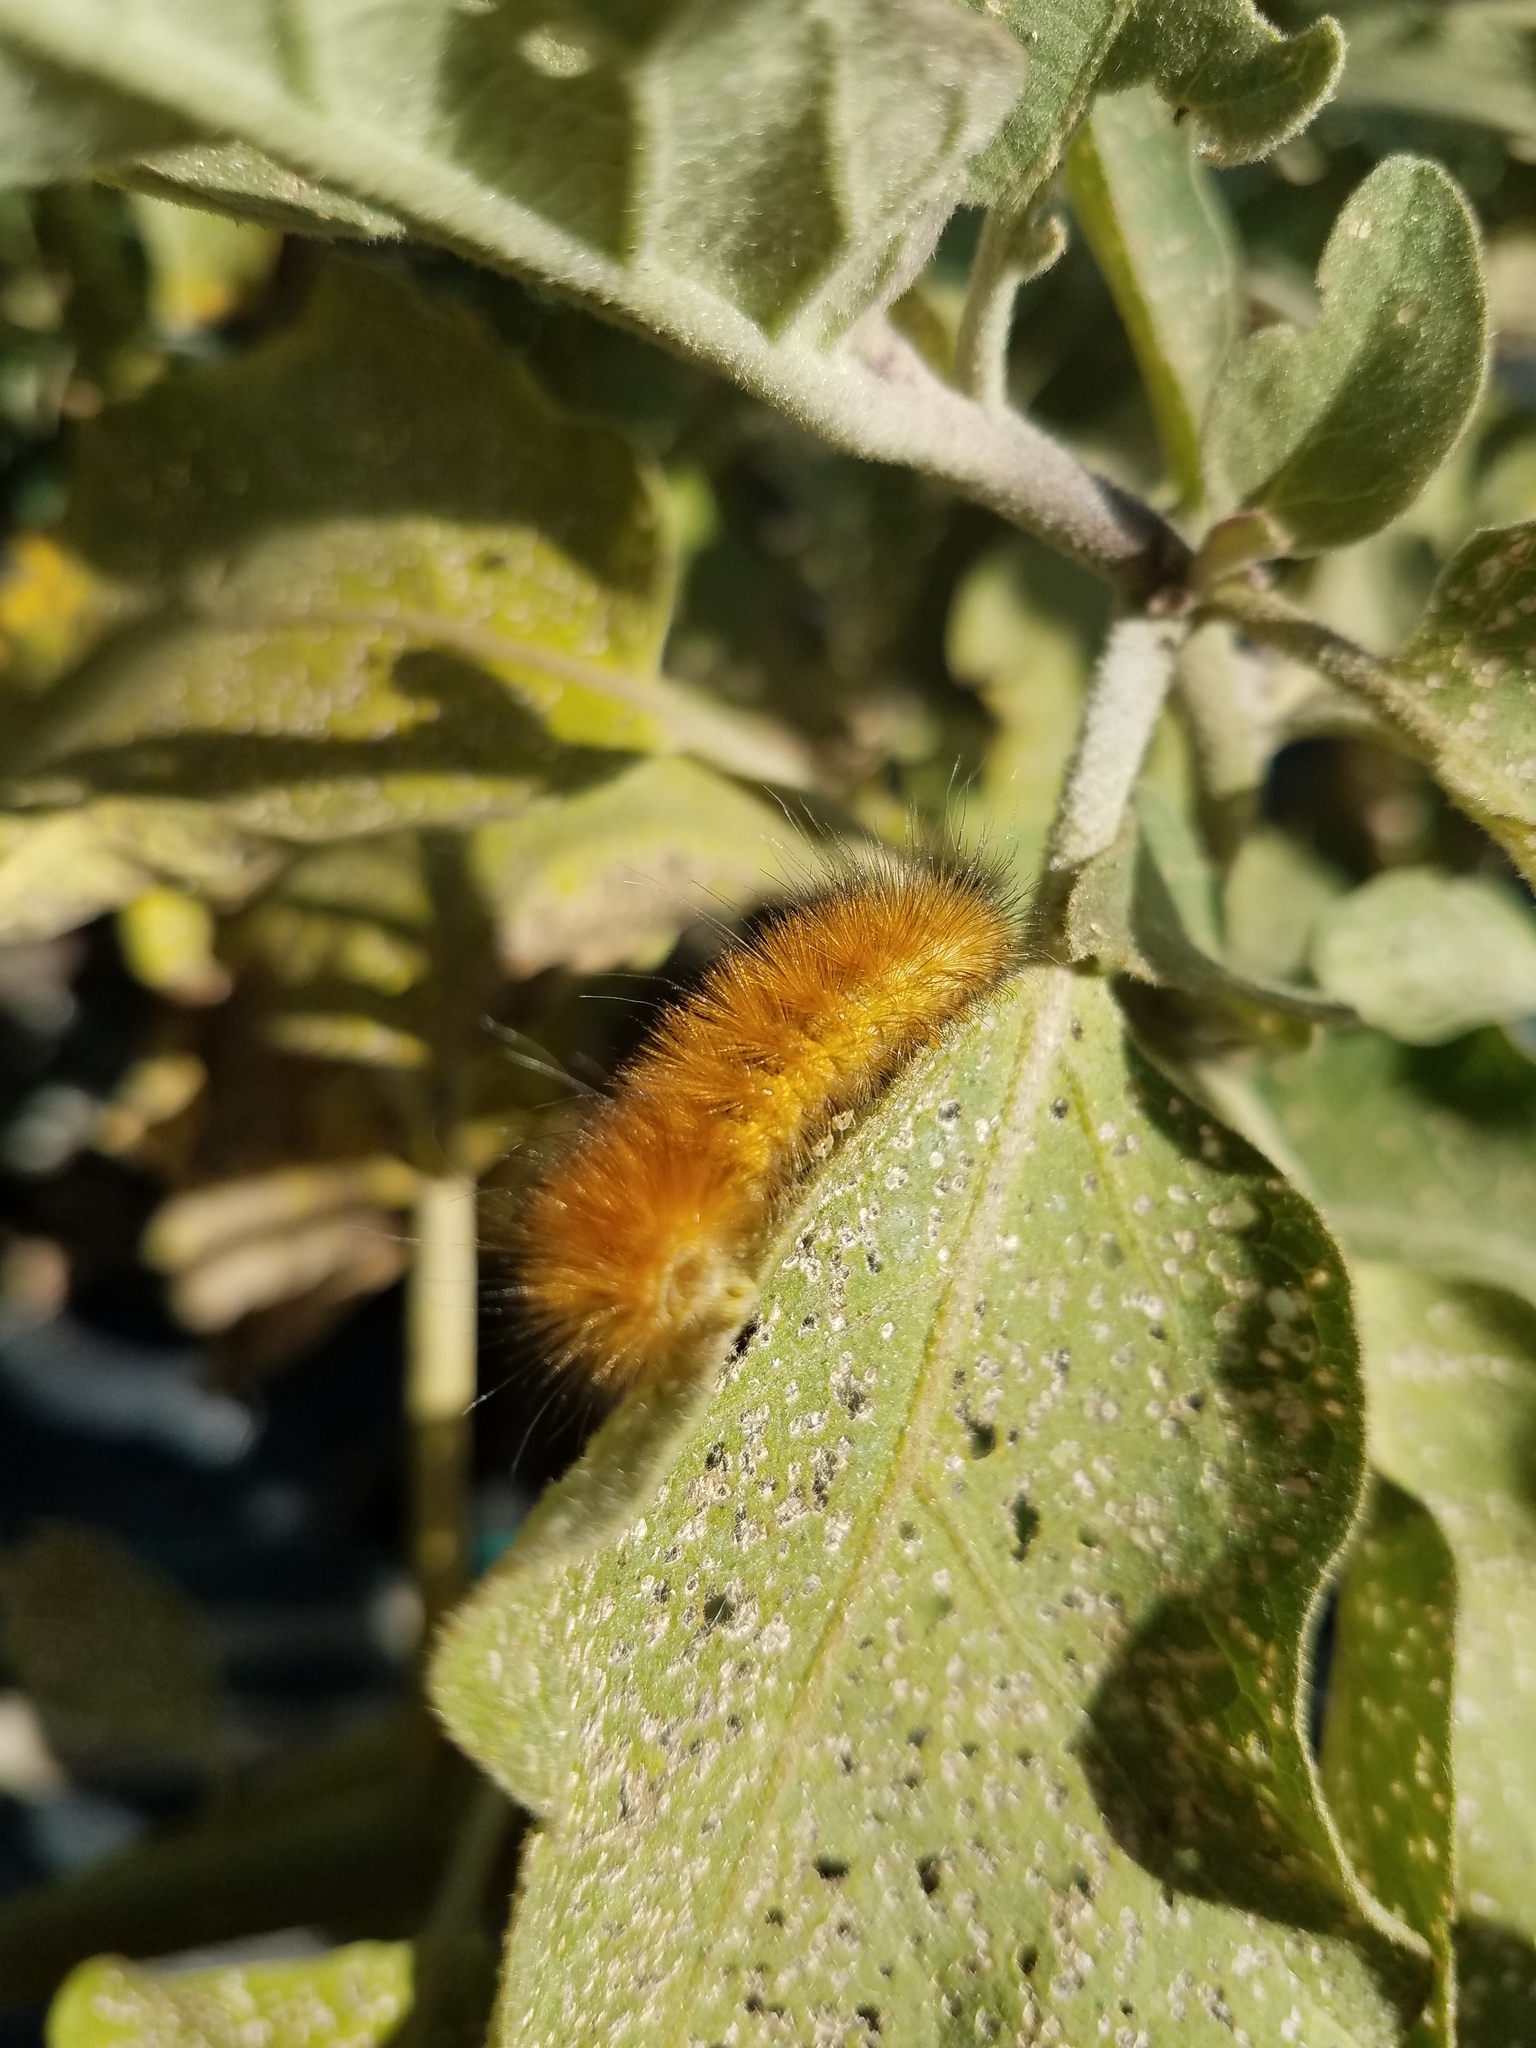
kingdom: Animalia
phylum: Arthropoda
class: Insecta
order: Lepidoptera
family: Erebidae
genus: Spilosoma
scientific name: Spilosoma virginica
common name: Virginia tiger moth
